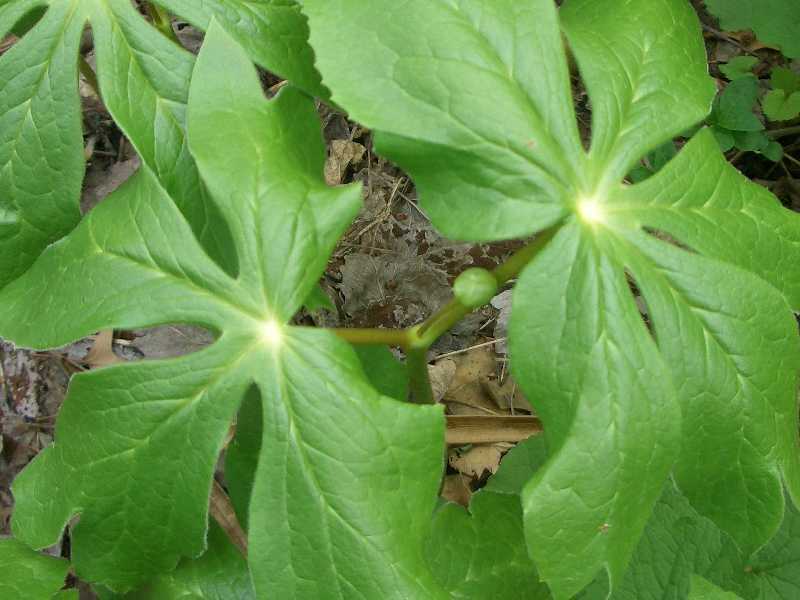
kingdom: Plantae
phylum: Tracheophyta
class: Magnoliopsida
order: Ranunculales
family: Berberidaceae
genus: Podophyllum
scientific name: Podophyllum peltatum
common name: Wild mandrake
